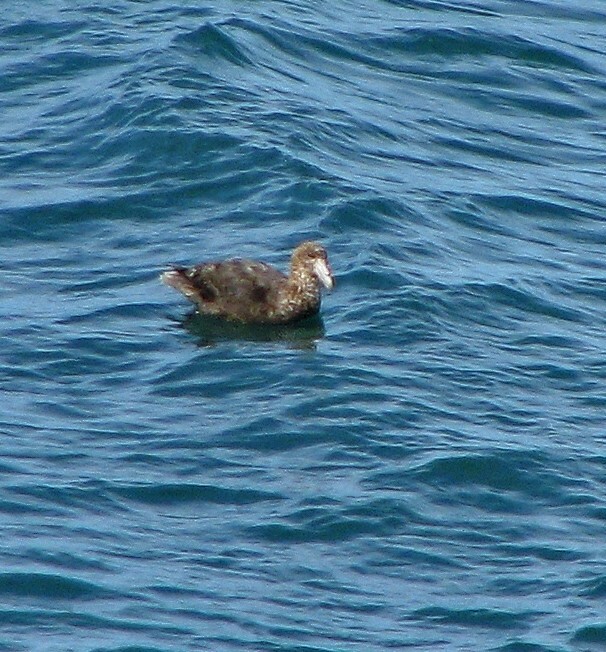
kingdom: Animalia
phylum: Chordata
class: Aves
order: Procellariiformes
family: Procellariidae
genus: Macronectes
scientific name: Macronectes giganteus
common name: Southern giant petrel
